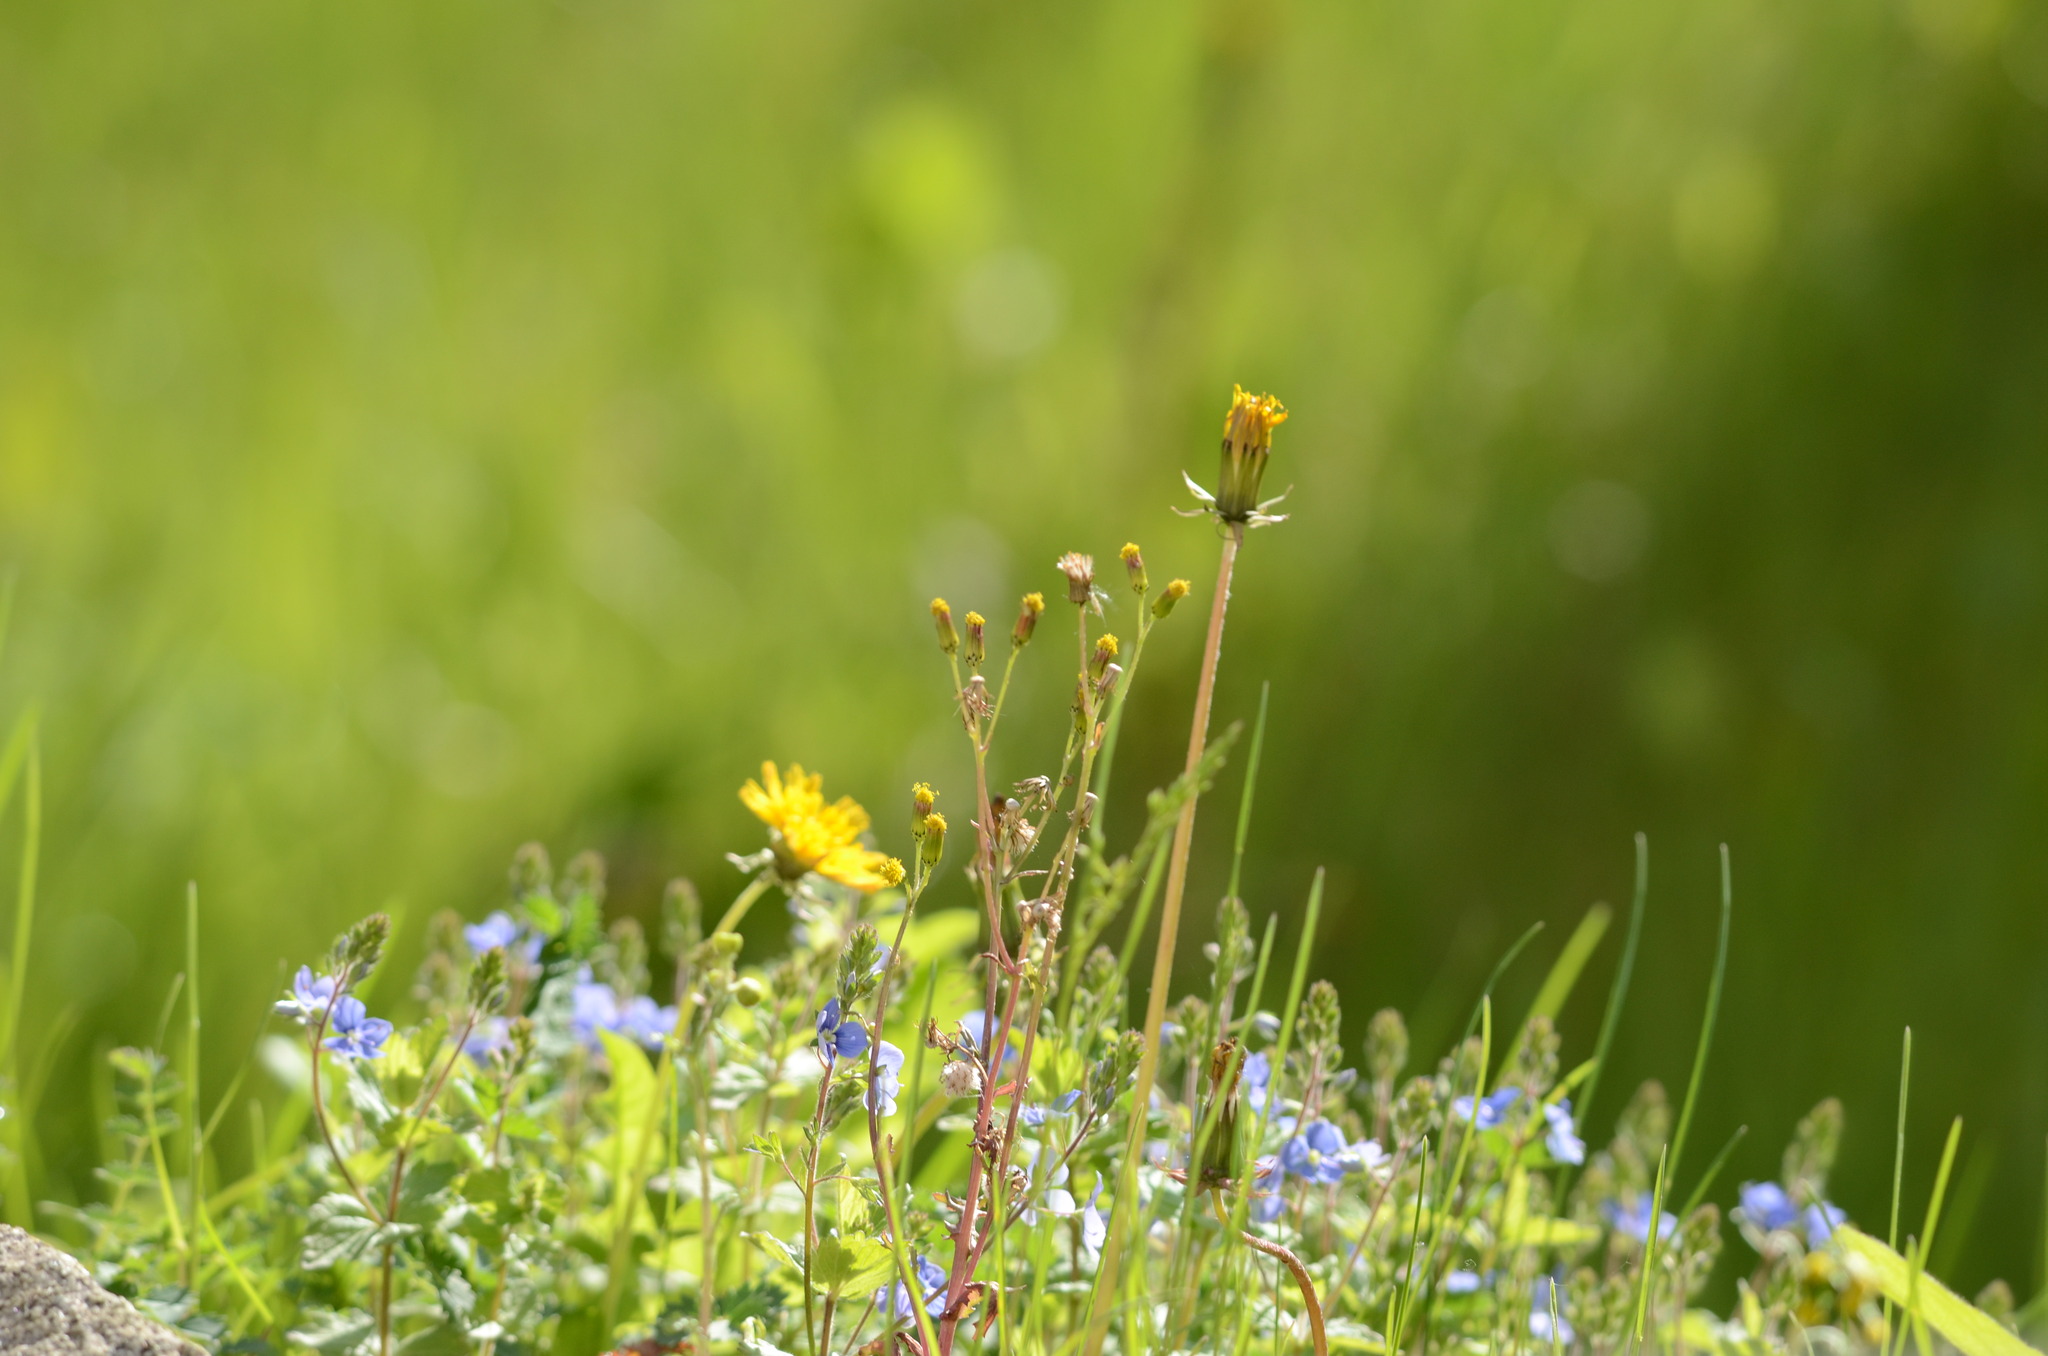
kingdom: Plantae
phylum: Tracheophyta
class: Magnoliopsida
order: Asterales
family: Asteraceae
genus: Senecio
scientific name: Senecio vulgaris
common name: Old-man-in-the-spring
